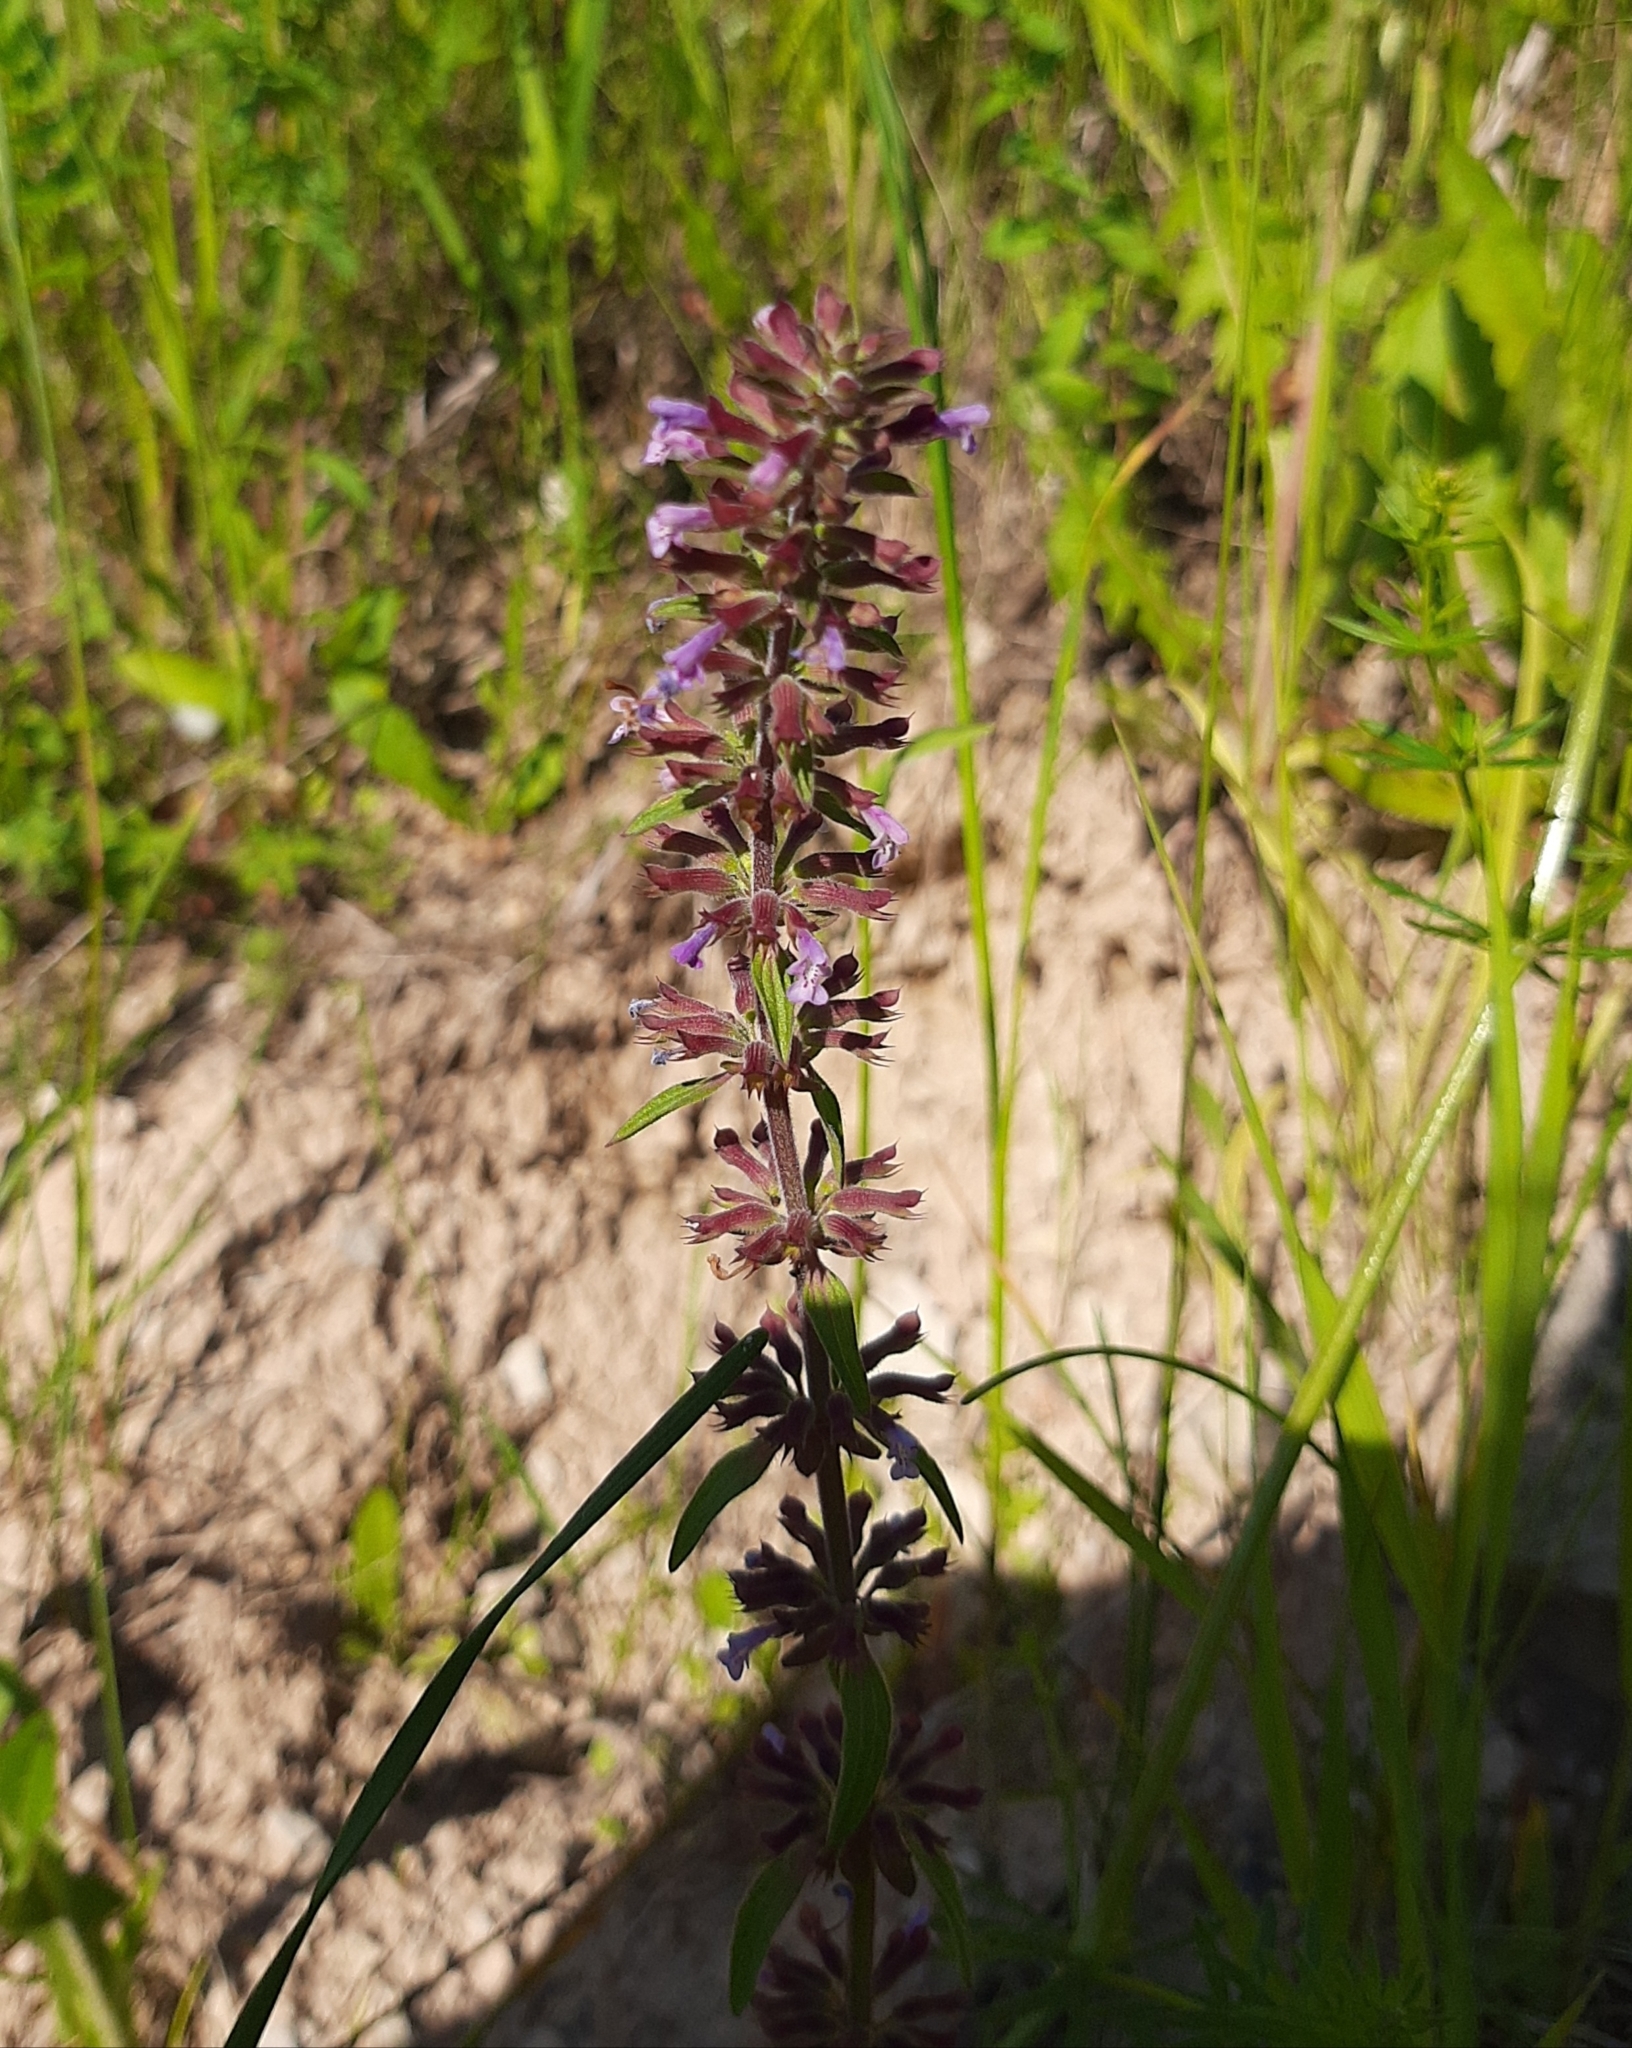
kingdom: Plantae
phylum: Tracheophyta
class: Magnoliopsida
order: Lamiales
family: Lamiaceae
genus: Dracocephalum
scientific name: Dracocephalum thymiflorum
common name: Thymeleaf dragonhead
